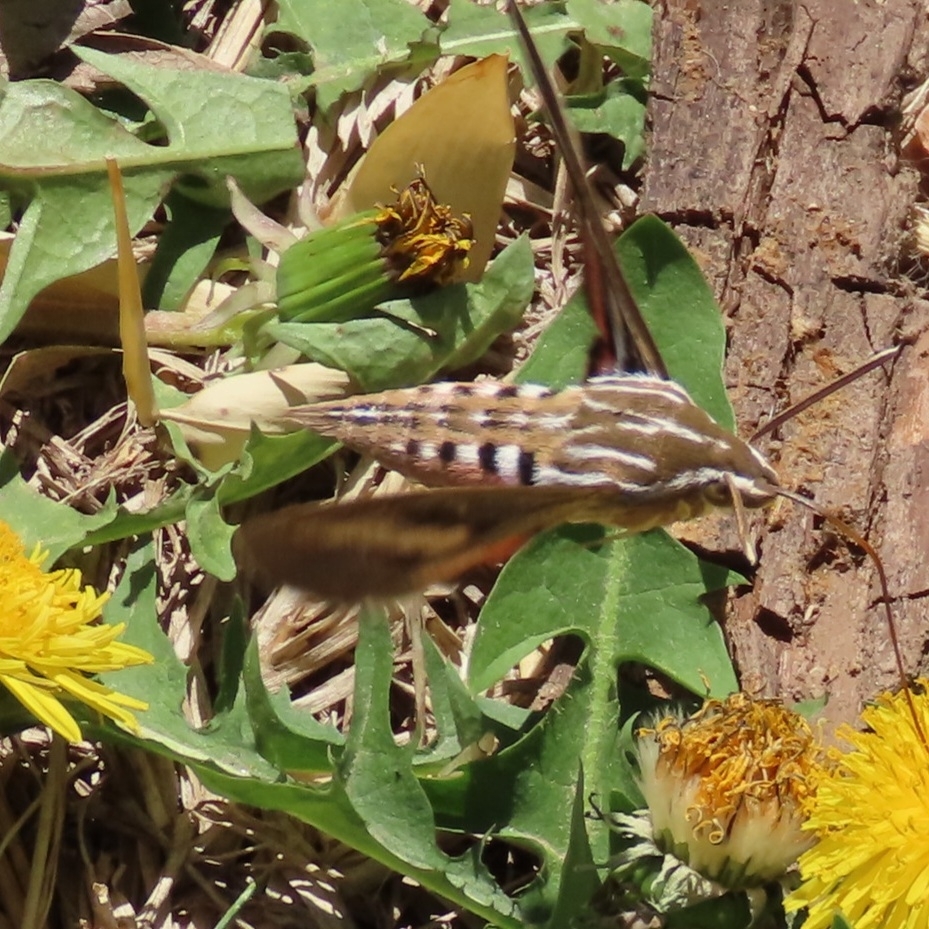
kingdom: Animalia
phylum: Arthropoda
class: Insecta
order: Lepidoptera
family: Sphingidae
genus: Hyles
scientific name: Hyles lineata
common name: White-lined sphinx
